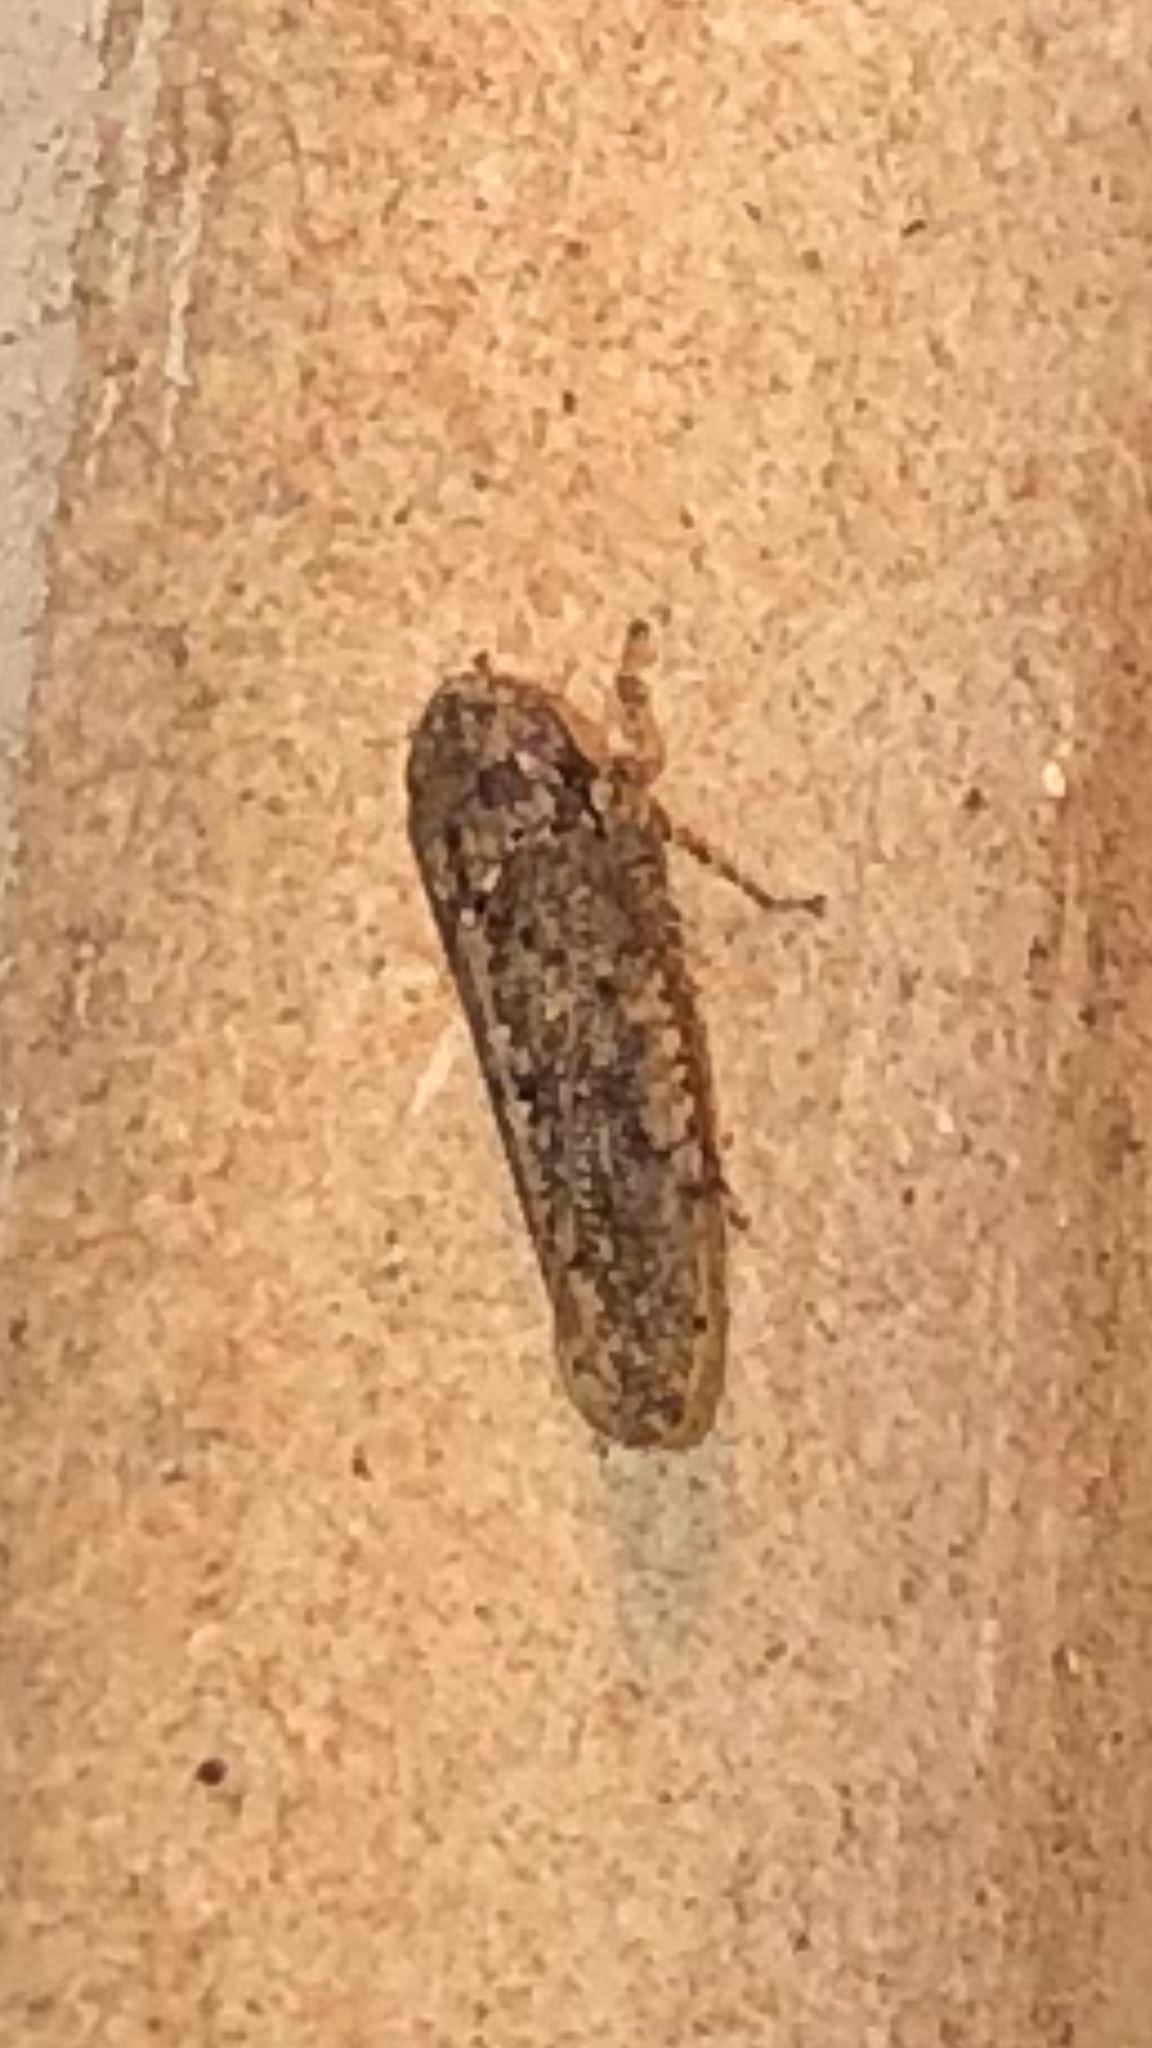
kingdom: Animalia
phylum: Arthropoda
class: Insecta
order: Hemiptera
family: Cicadellidae
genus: Paraphlepsius
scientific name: Paraphlepsius
